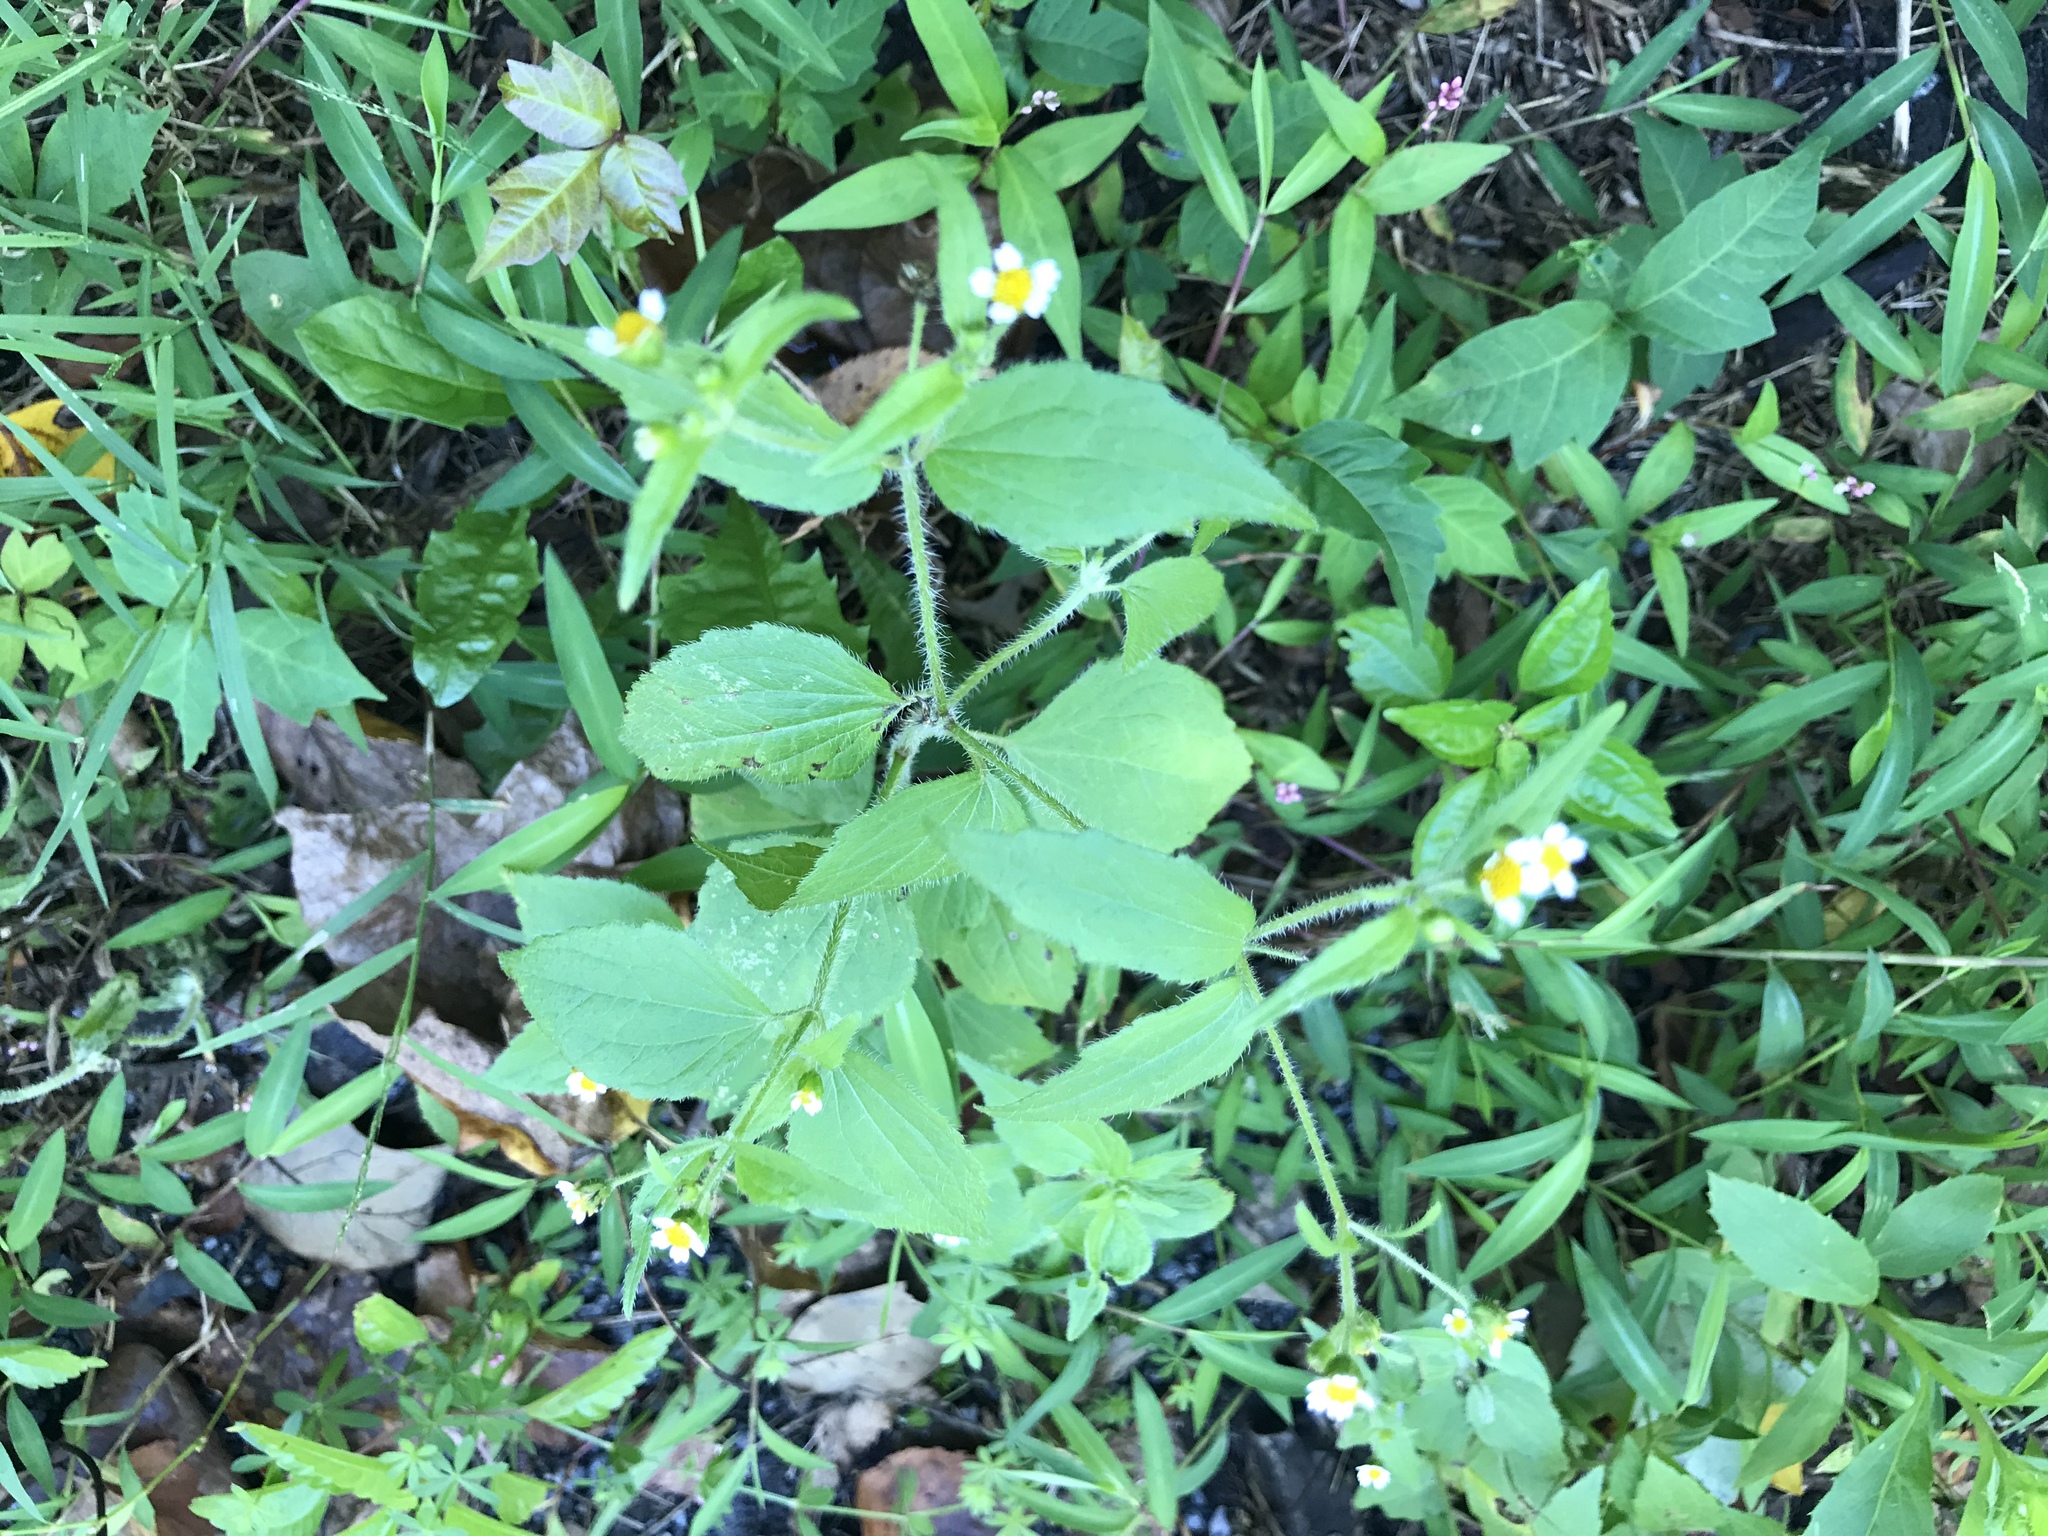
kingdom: Plantae
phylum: Tracheophyta
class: Magnoliopsida
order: Asterales
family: Asteraceae
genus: Galinsoga
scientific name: Galinsoga quadriradiata
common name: Shaggy soldier
